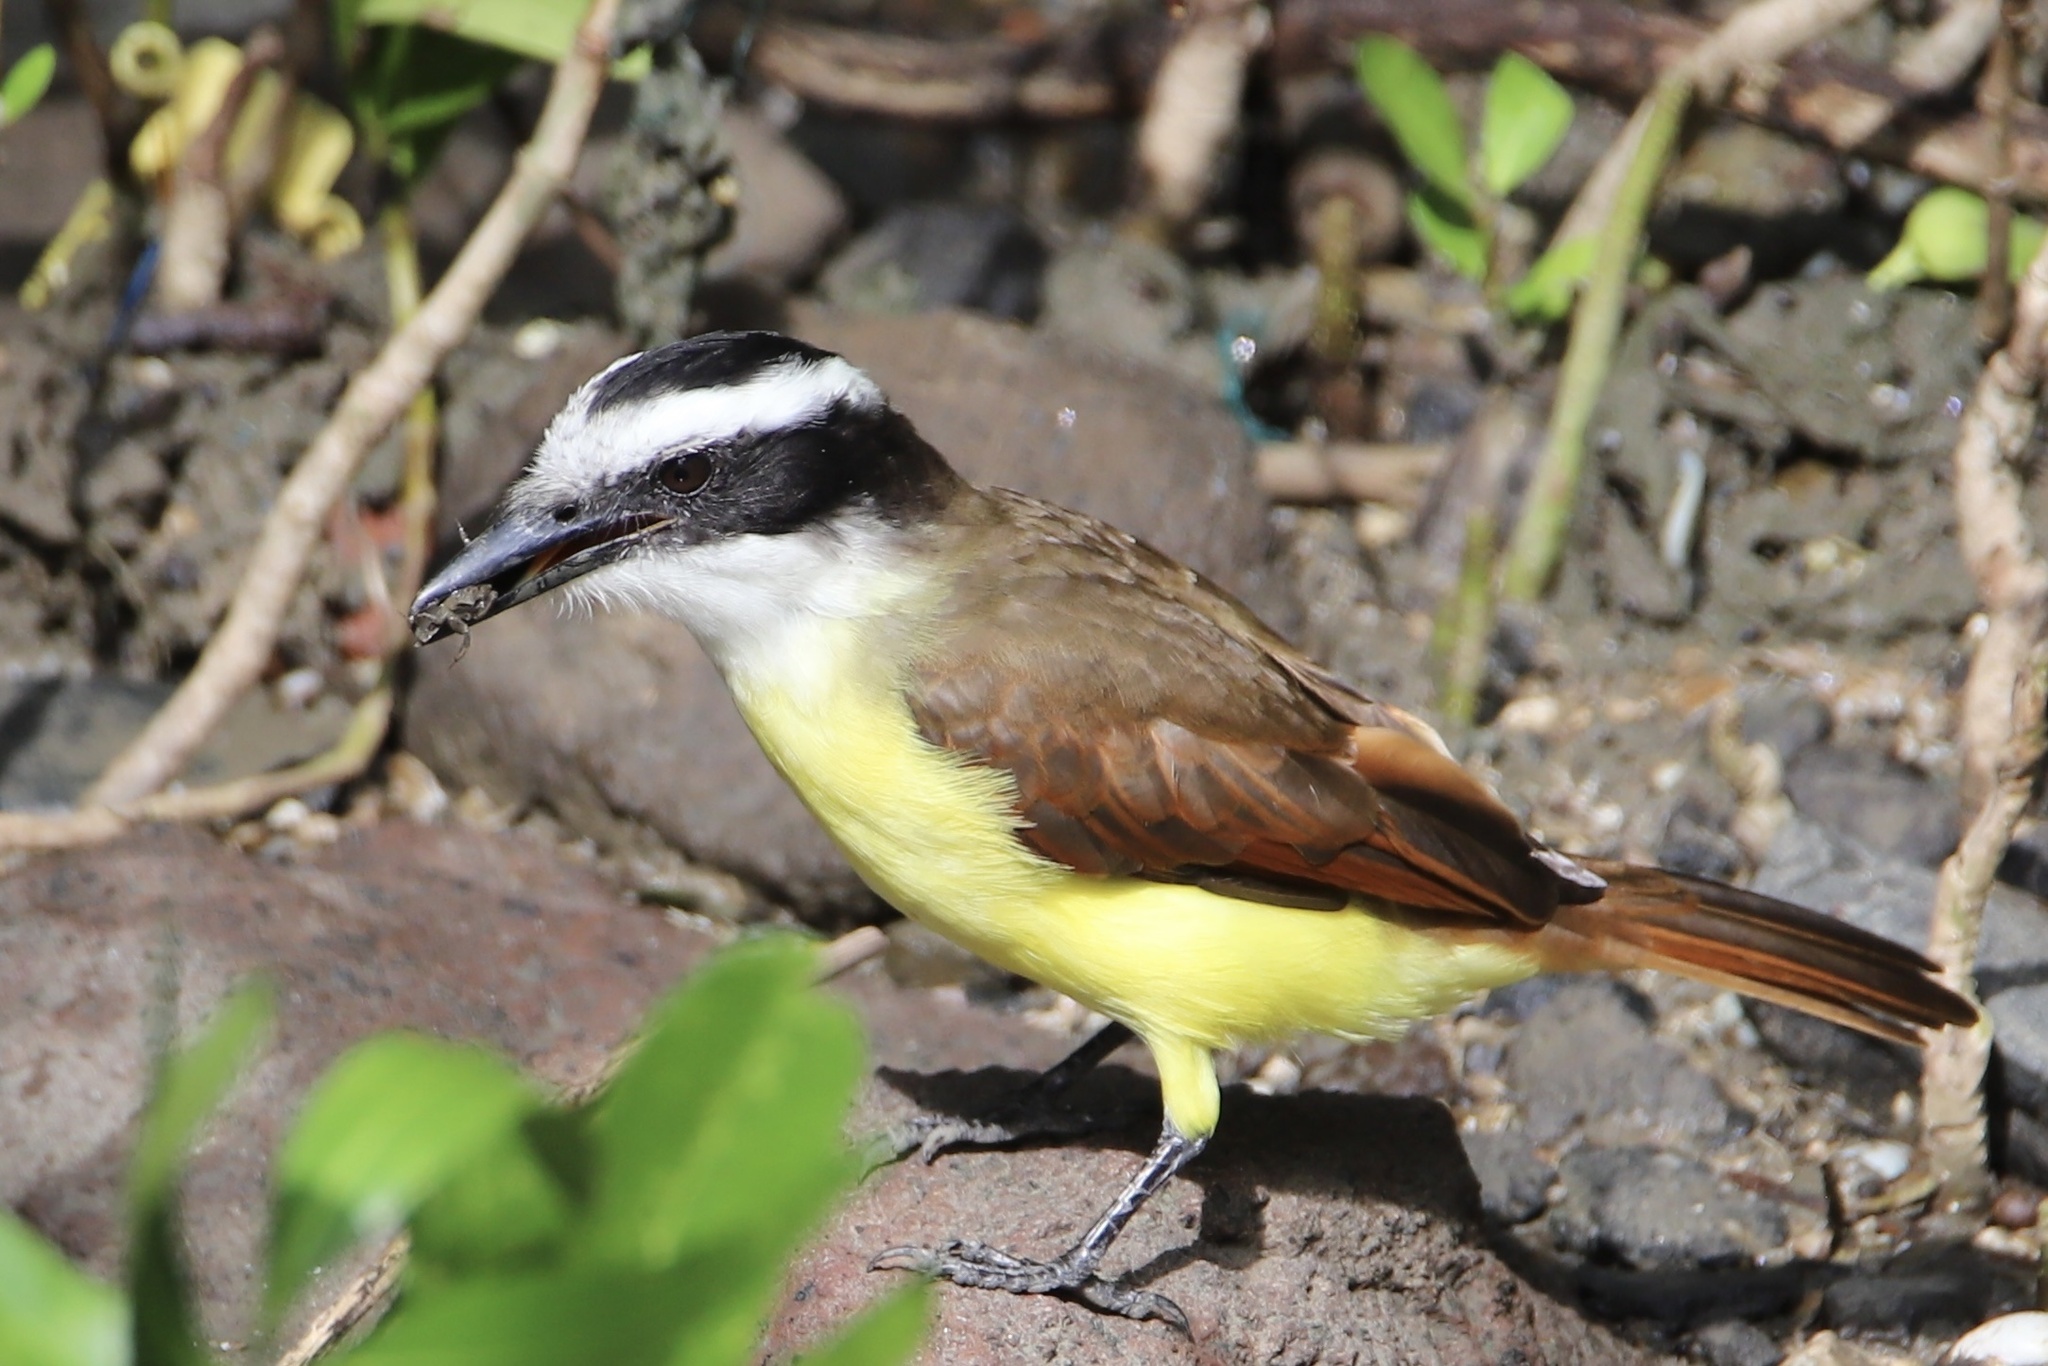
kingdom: Animalia
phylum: Chordata
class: Aves
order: Passeriformes
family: Tyrannidae
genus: Pitangus
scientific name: Pitangus sulphuratus
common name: Great kiskadee
